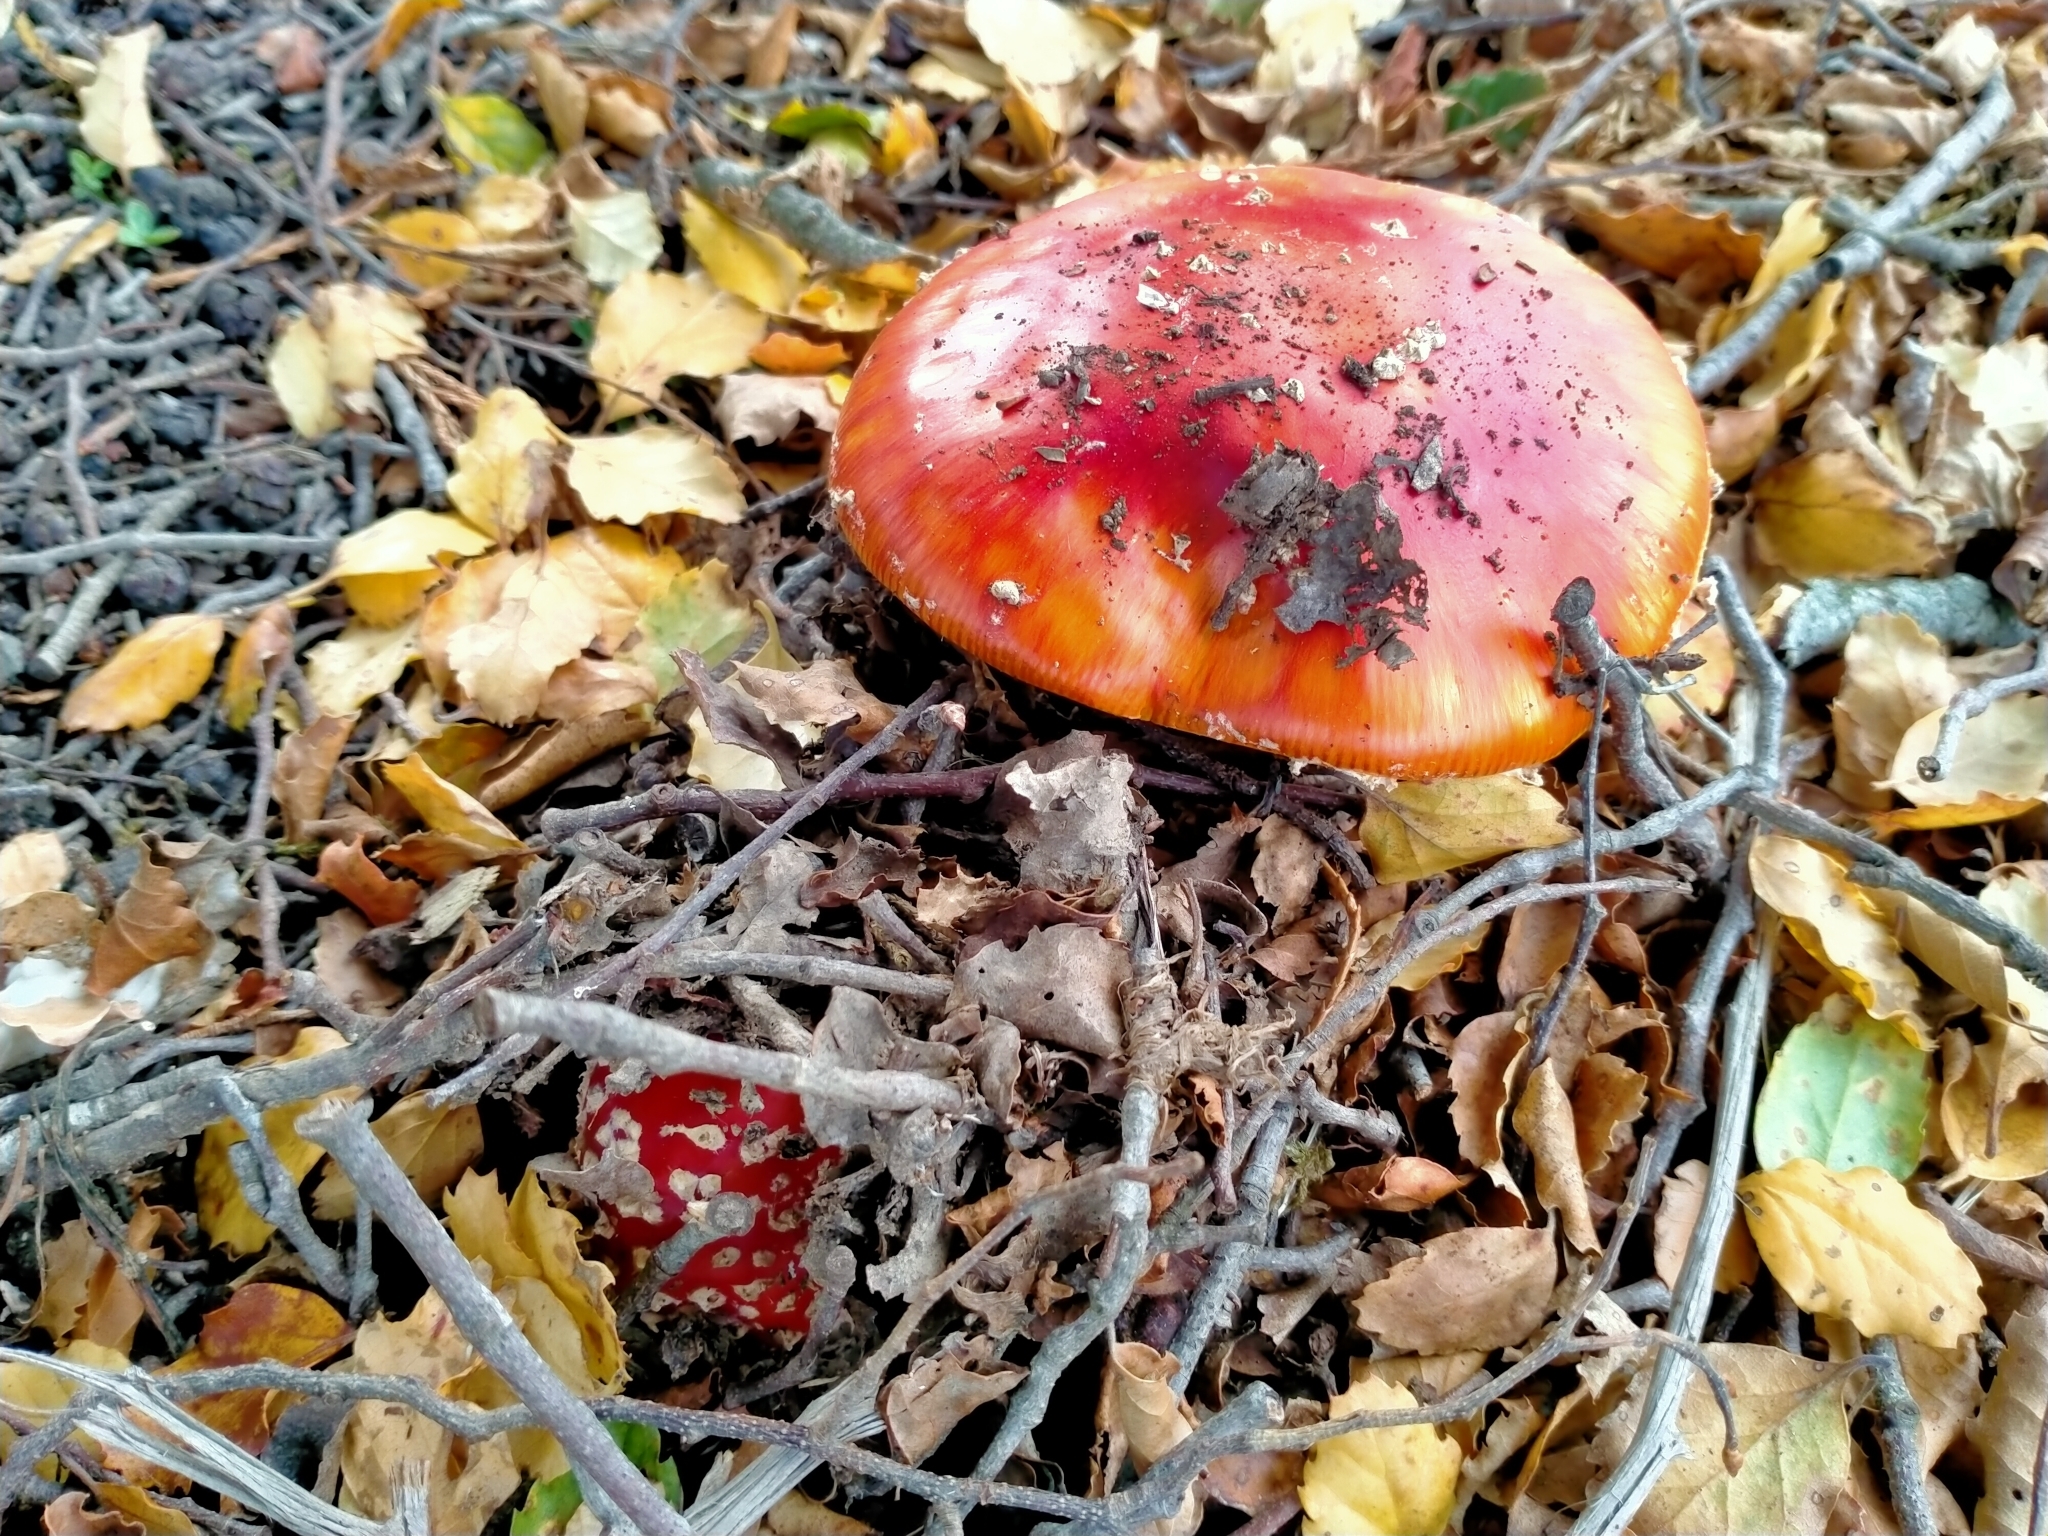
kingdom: Fungi
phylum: Basidiomycota
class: Agaricomycetes
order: Agaricales
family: Amanitaceae
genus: Amanita
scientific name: Amanita muscaria
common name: Fly agaric
